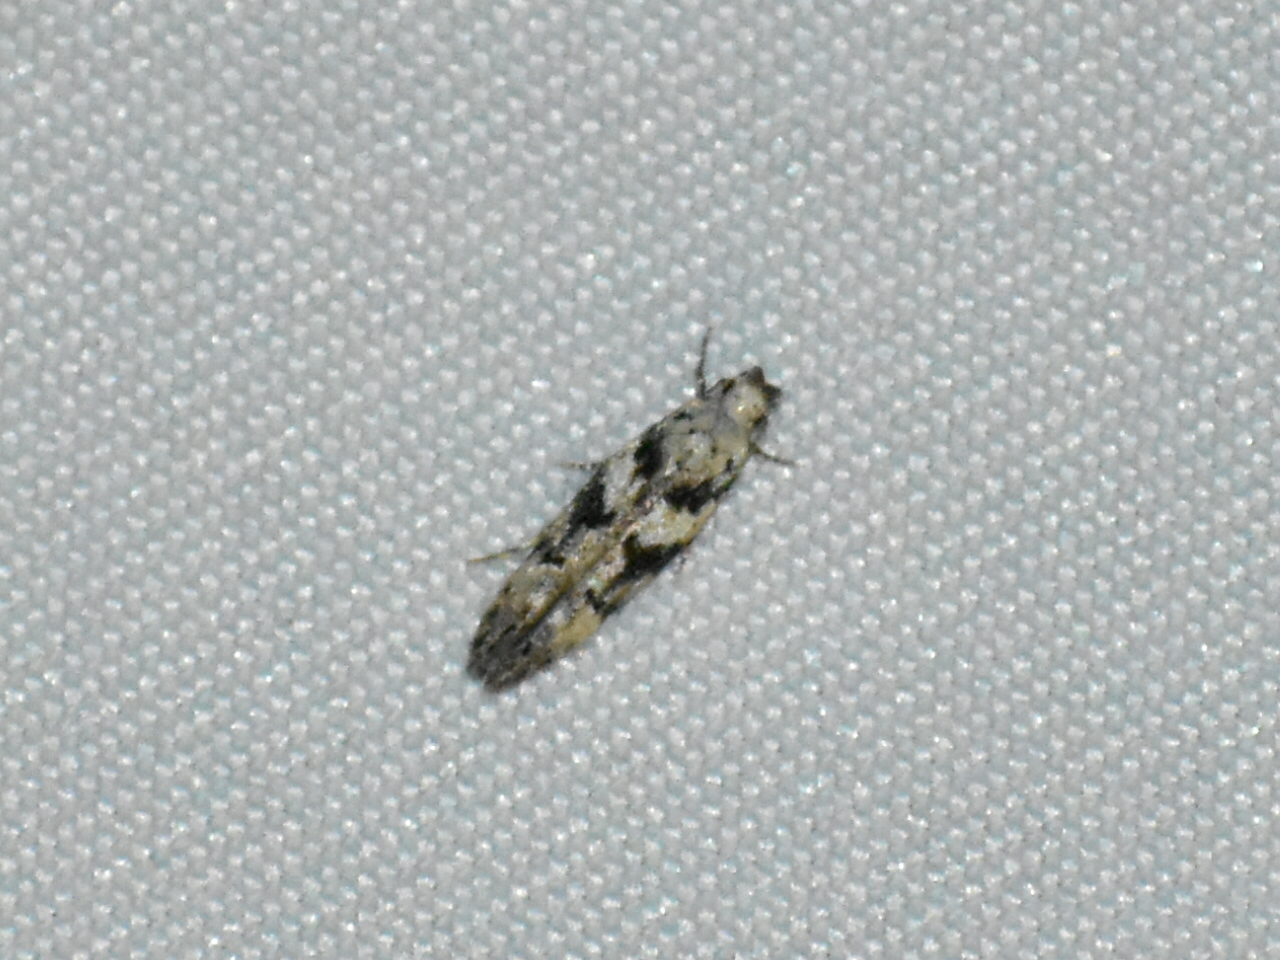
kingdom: Animalia
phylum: Arthropoda
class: Insecta
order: Lepidoptera
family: Gelechiidae
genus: Coleotechnites
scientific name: Coleotechnites atrupictella
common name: Spruce micromoth
